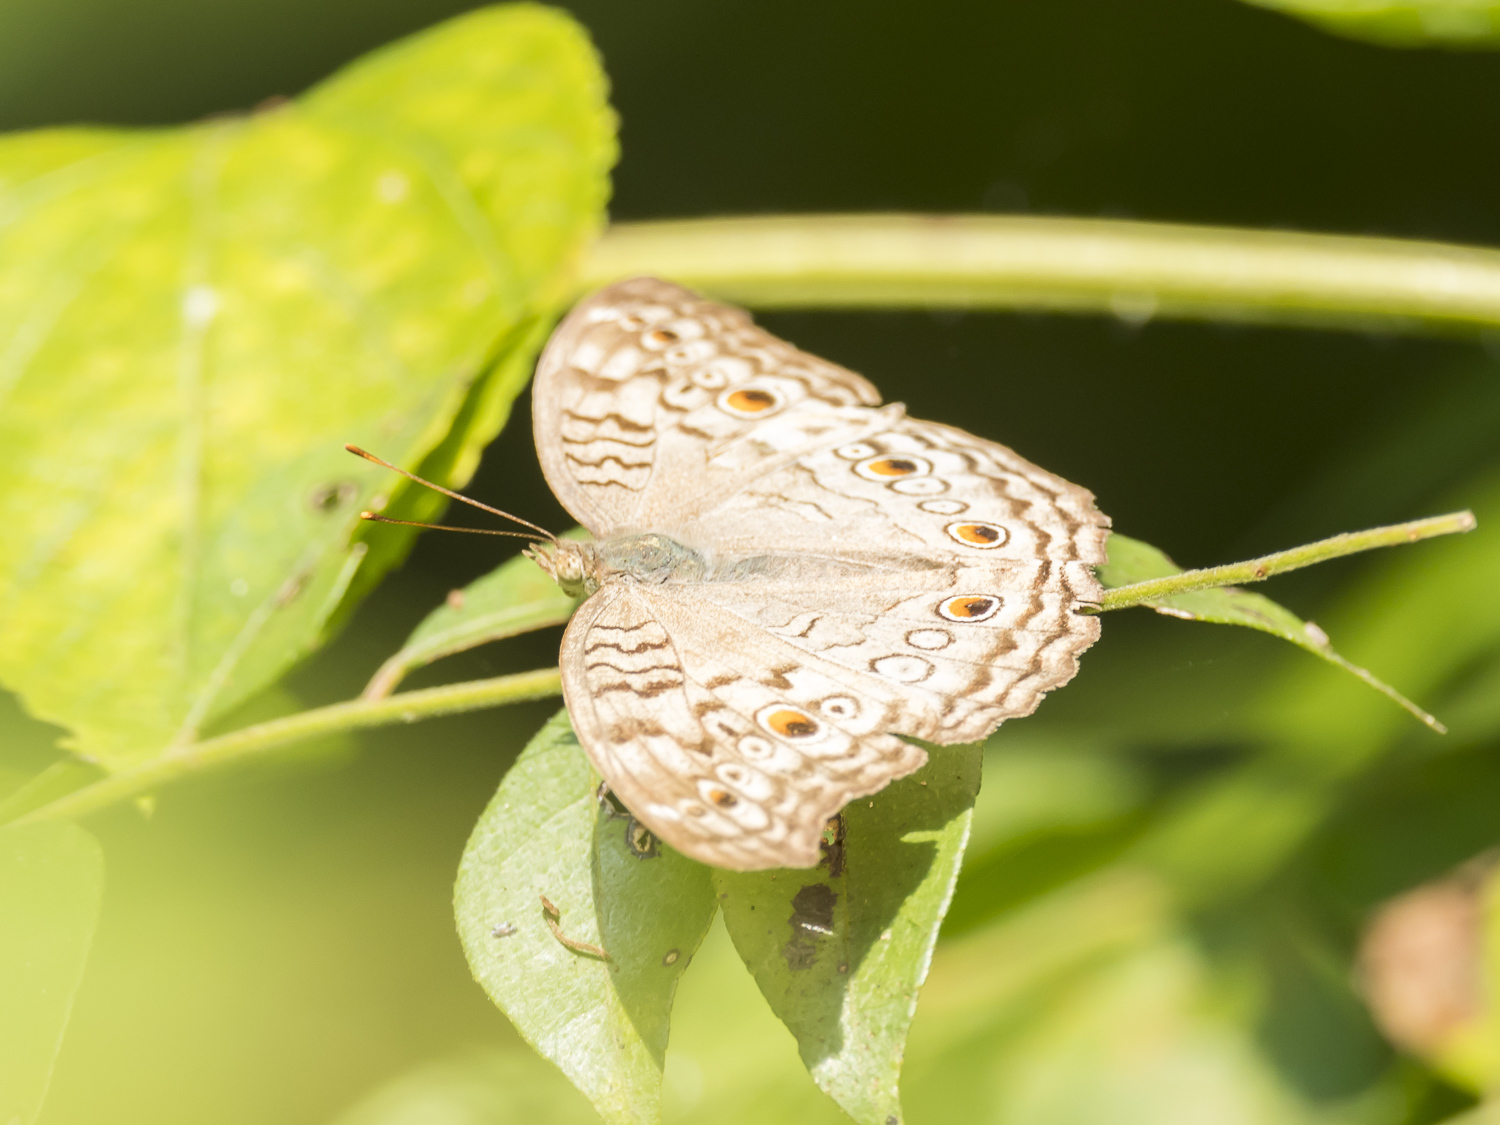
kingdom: Animalia
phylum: Arthropoda
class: Insecta
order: Lepidoptera
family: Nymphalidae
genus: Junonia
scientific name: Junonia atlites
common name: Grey pansy
